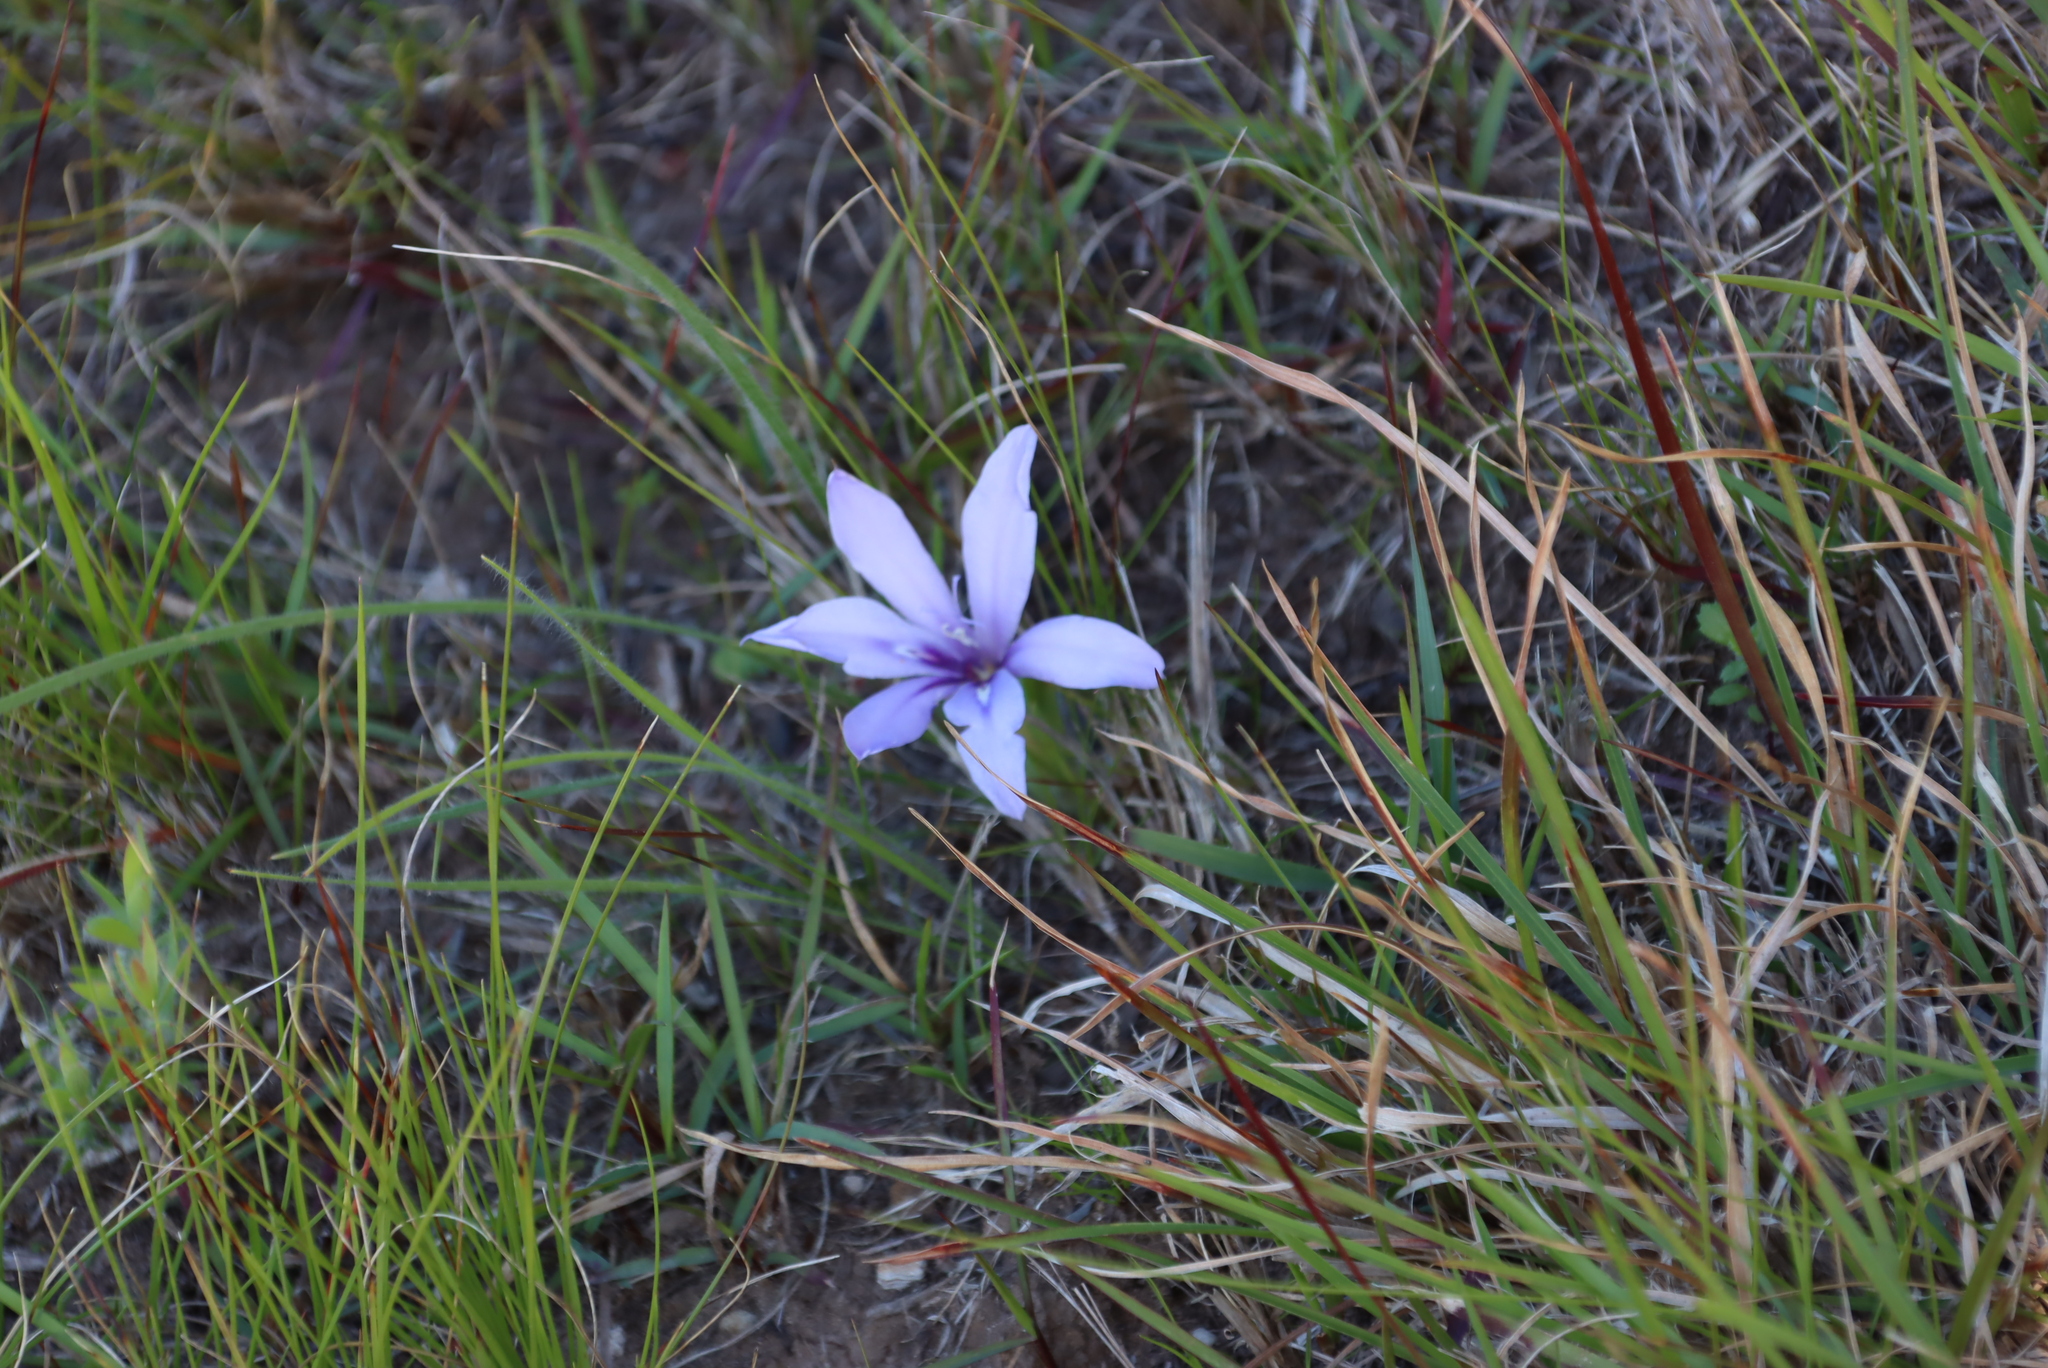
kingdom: Plantae
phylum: Tracheophyta
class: Liliopsida
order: Asparagales
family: Iridaceae
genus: Babiana
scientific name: Babiana sambucina
